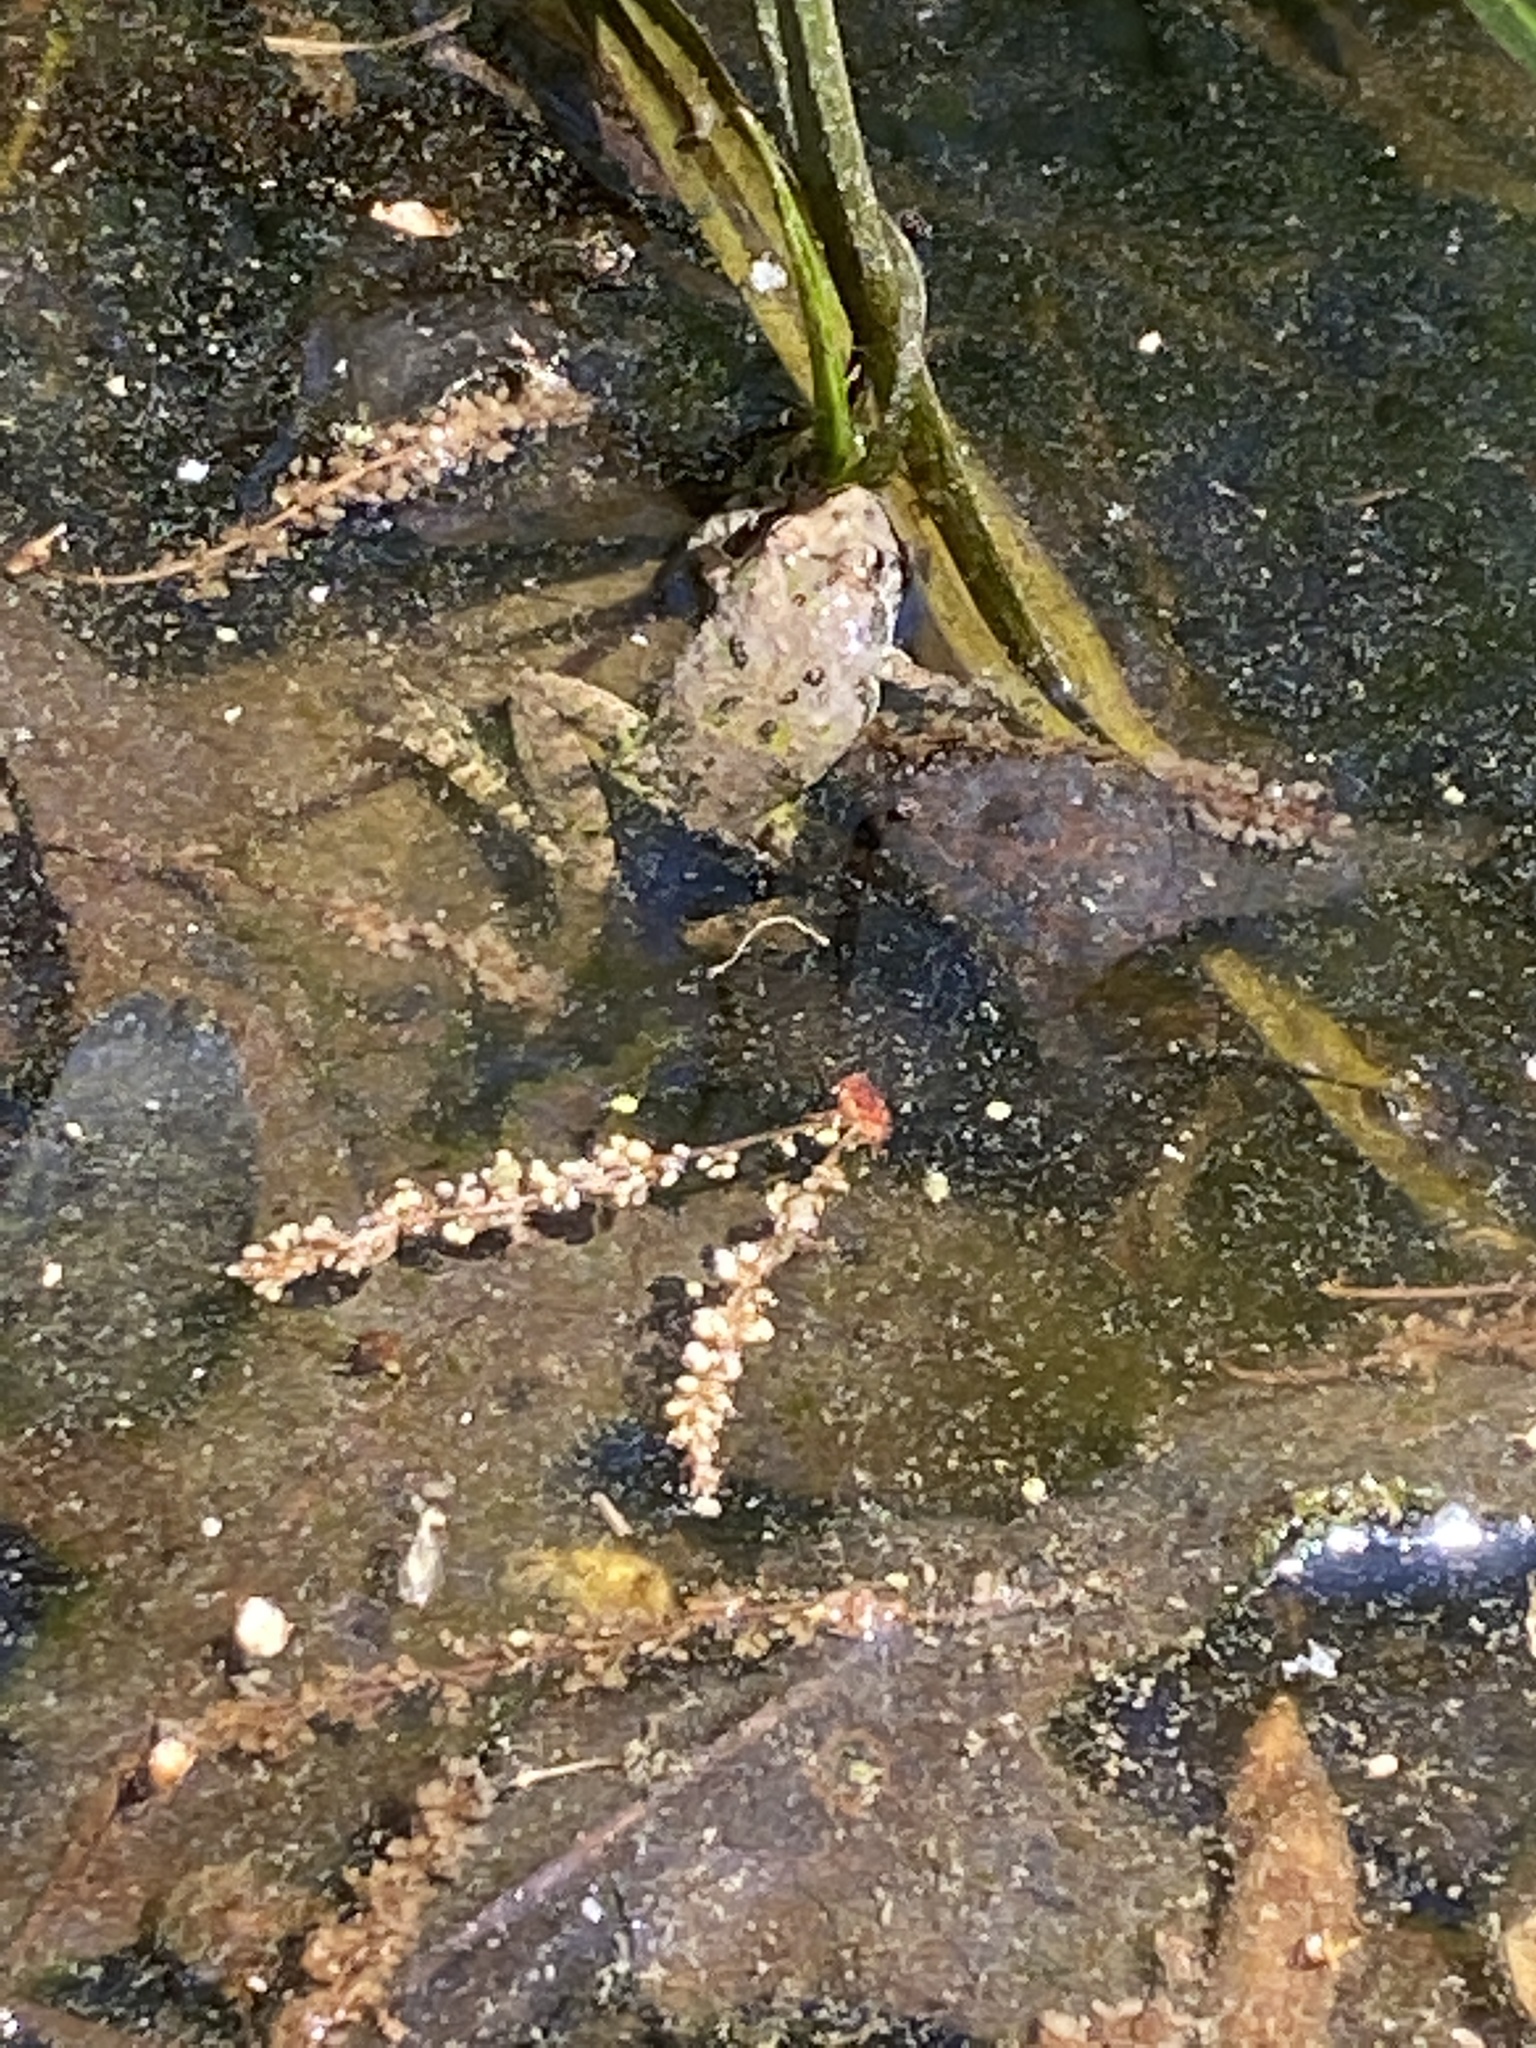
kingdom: Animalia
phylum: Chordata
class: Amphibia
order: Anura
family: Hylidae
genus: Acris
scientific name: Acris crepitans
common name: Northern cricket frog
